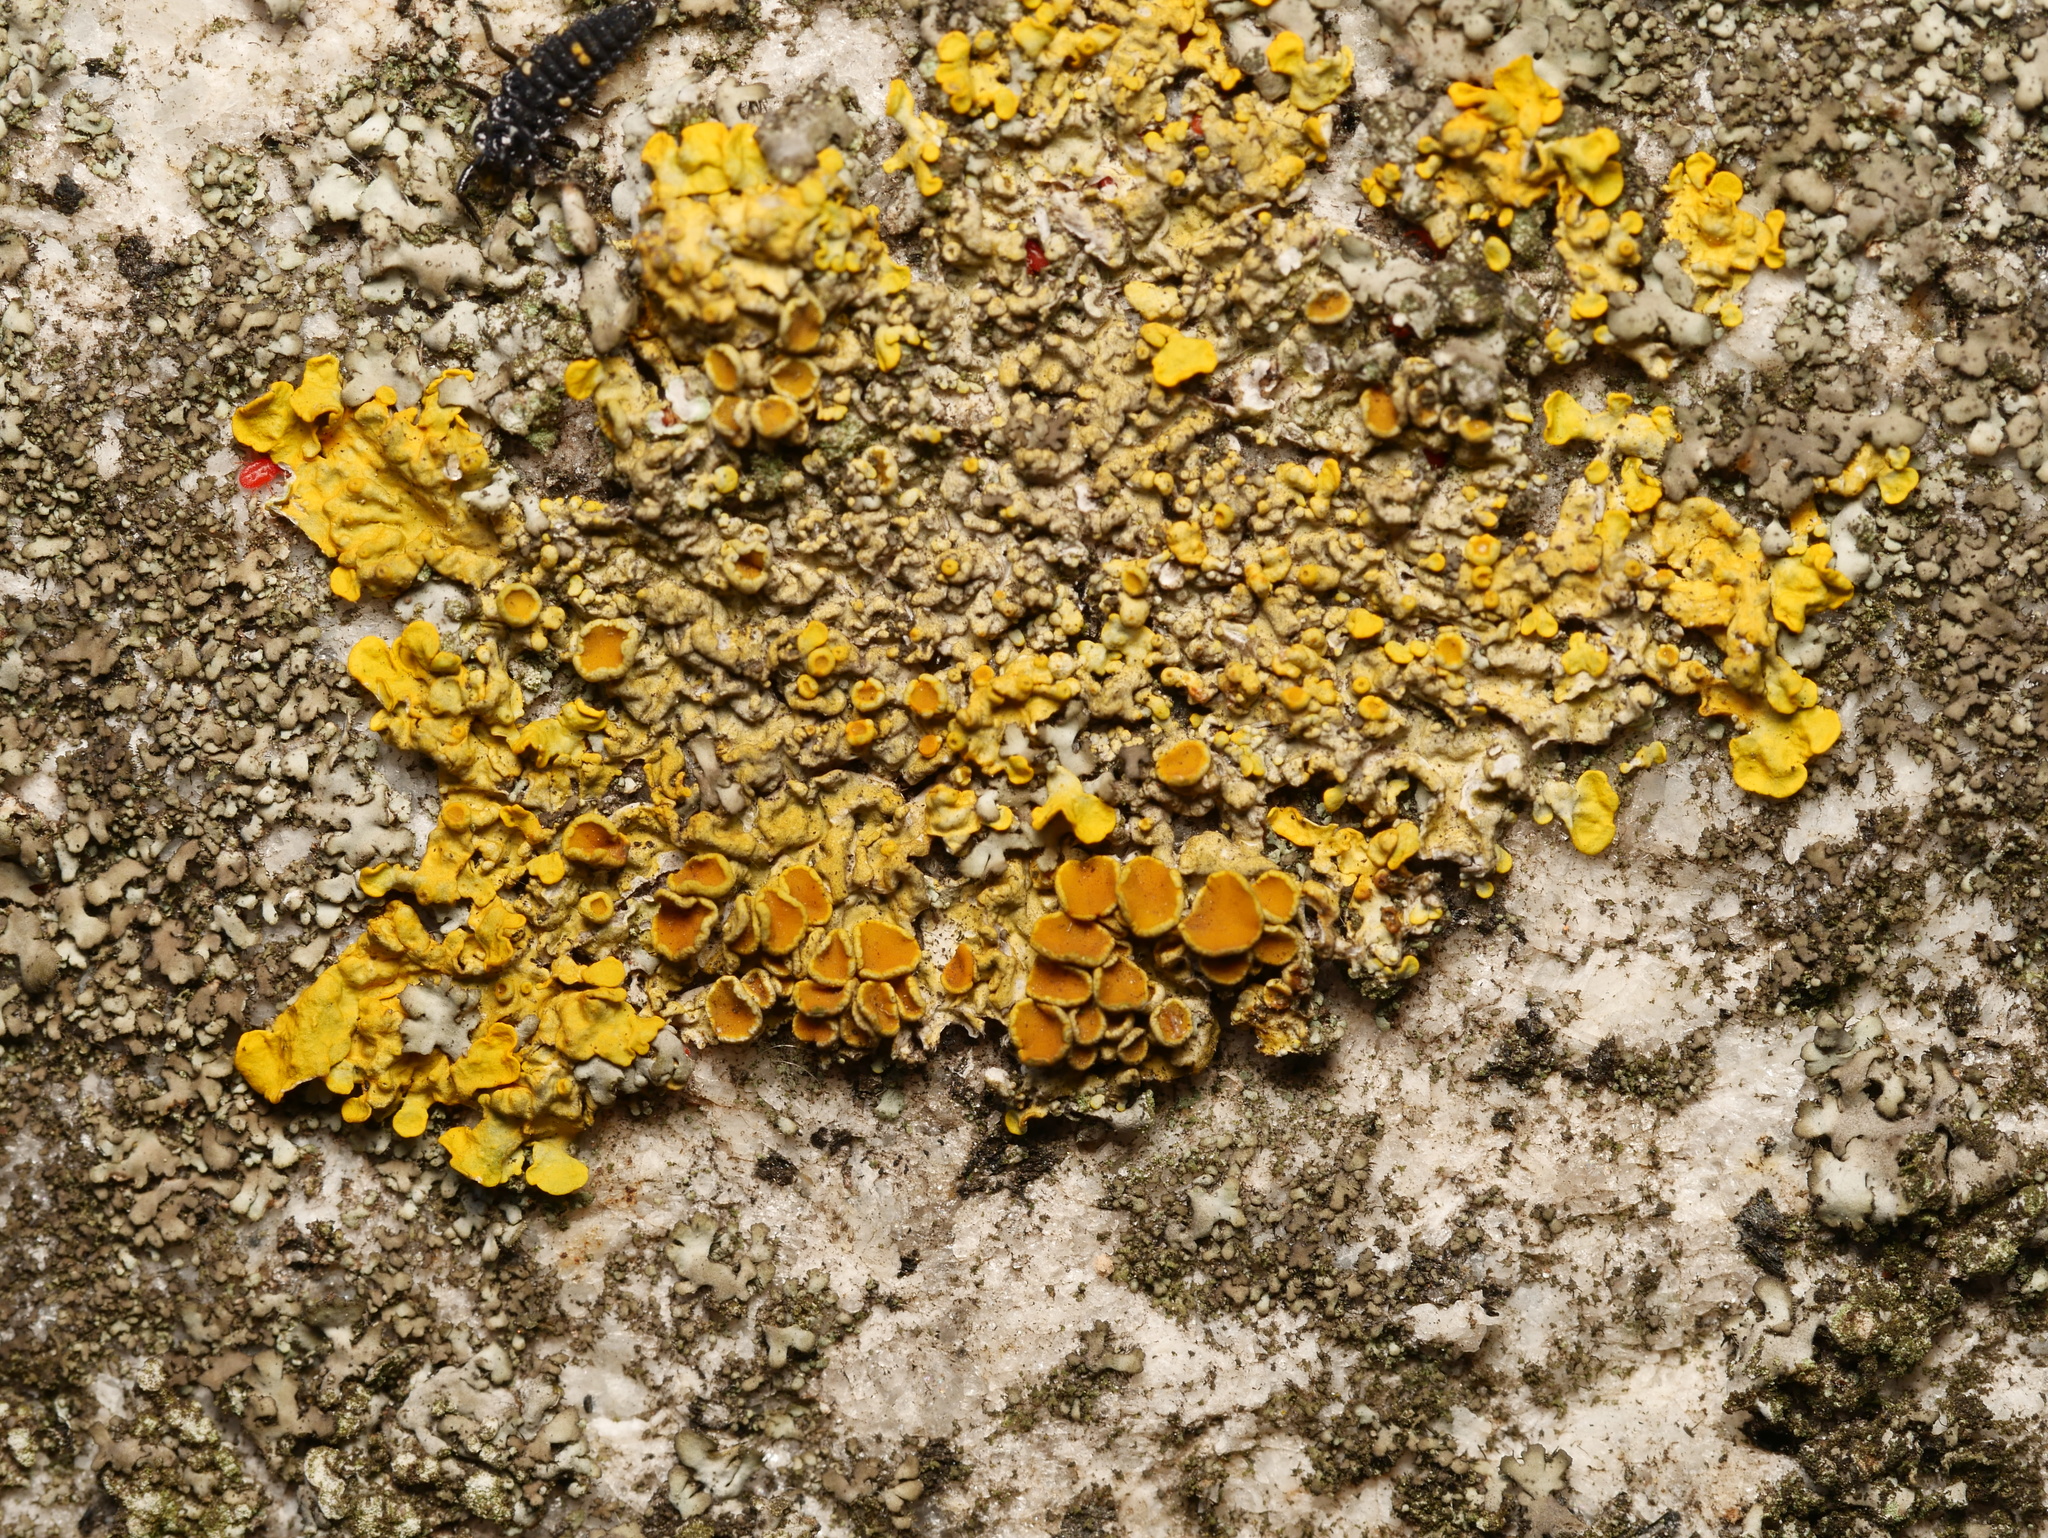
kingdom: Fungi
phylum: Ascomycota
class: Lecanoromycetes
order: Teloschistales
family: Teloschistaceae
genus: Xanthoria
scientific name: Xanthoria parietina
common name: Common orange lichen
